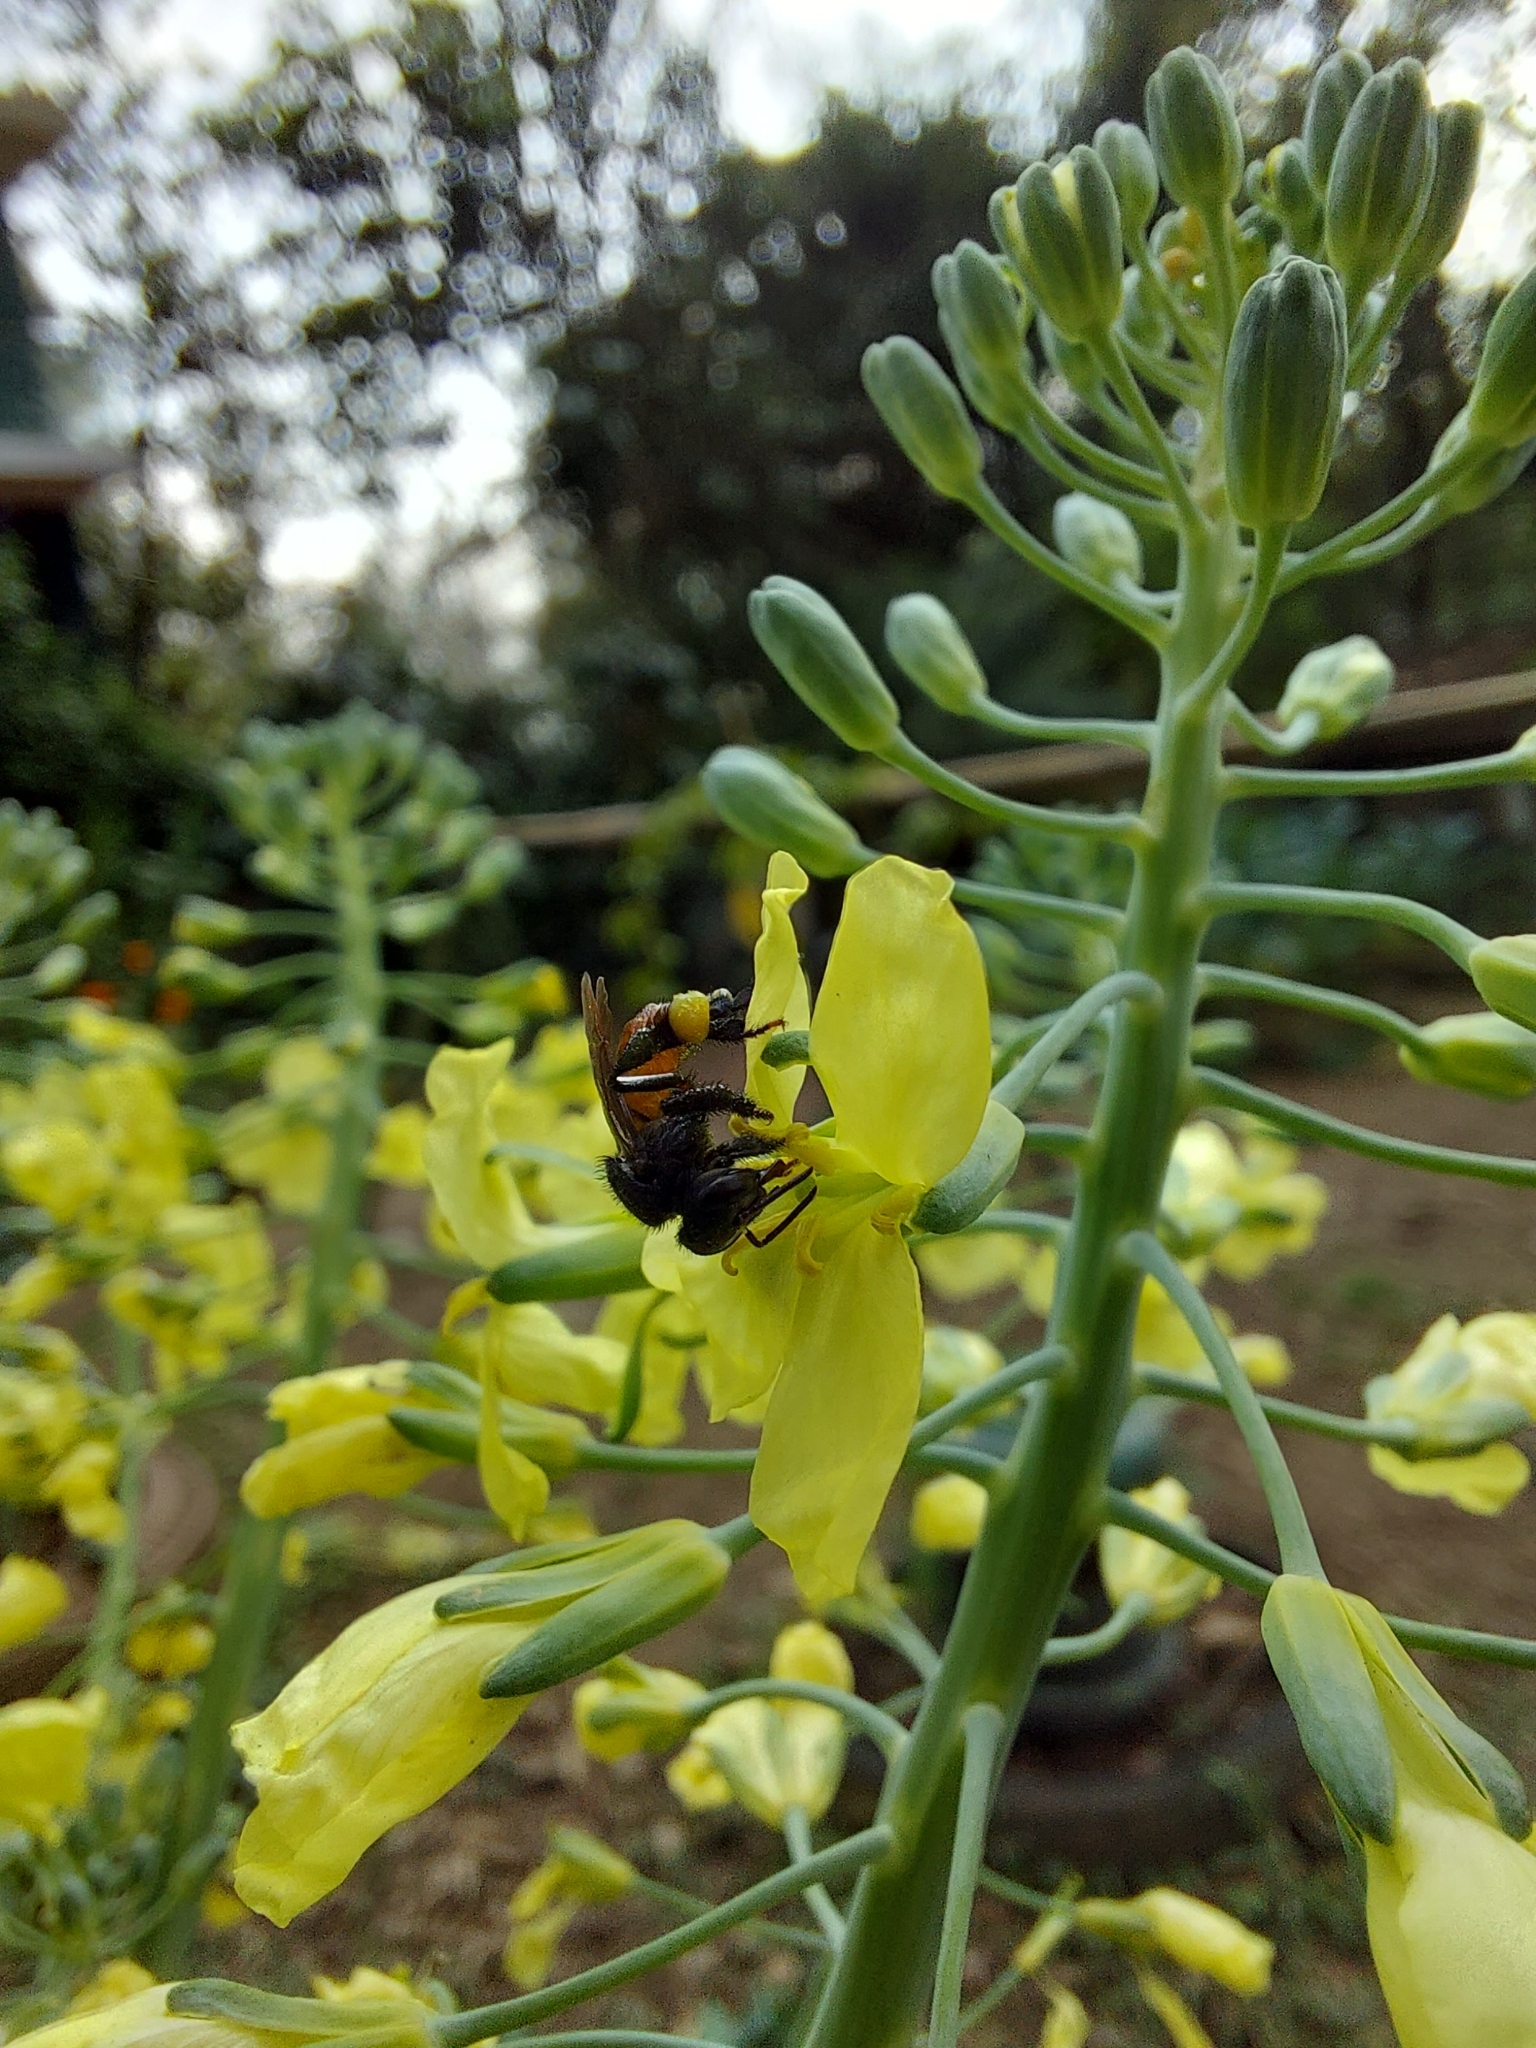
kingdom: Animalia
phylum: Arthropoda
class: Insecta
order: Hymenoptera
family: Apidae
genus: Trigona
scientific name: Trigona fulviventris
